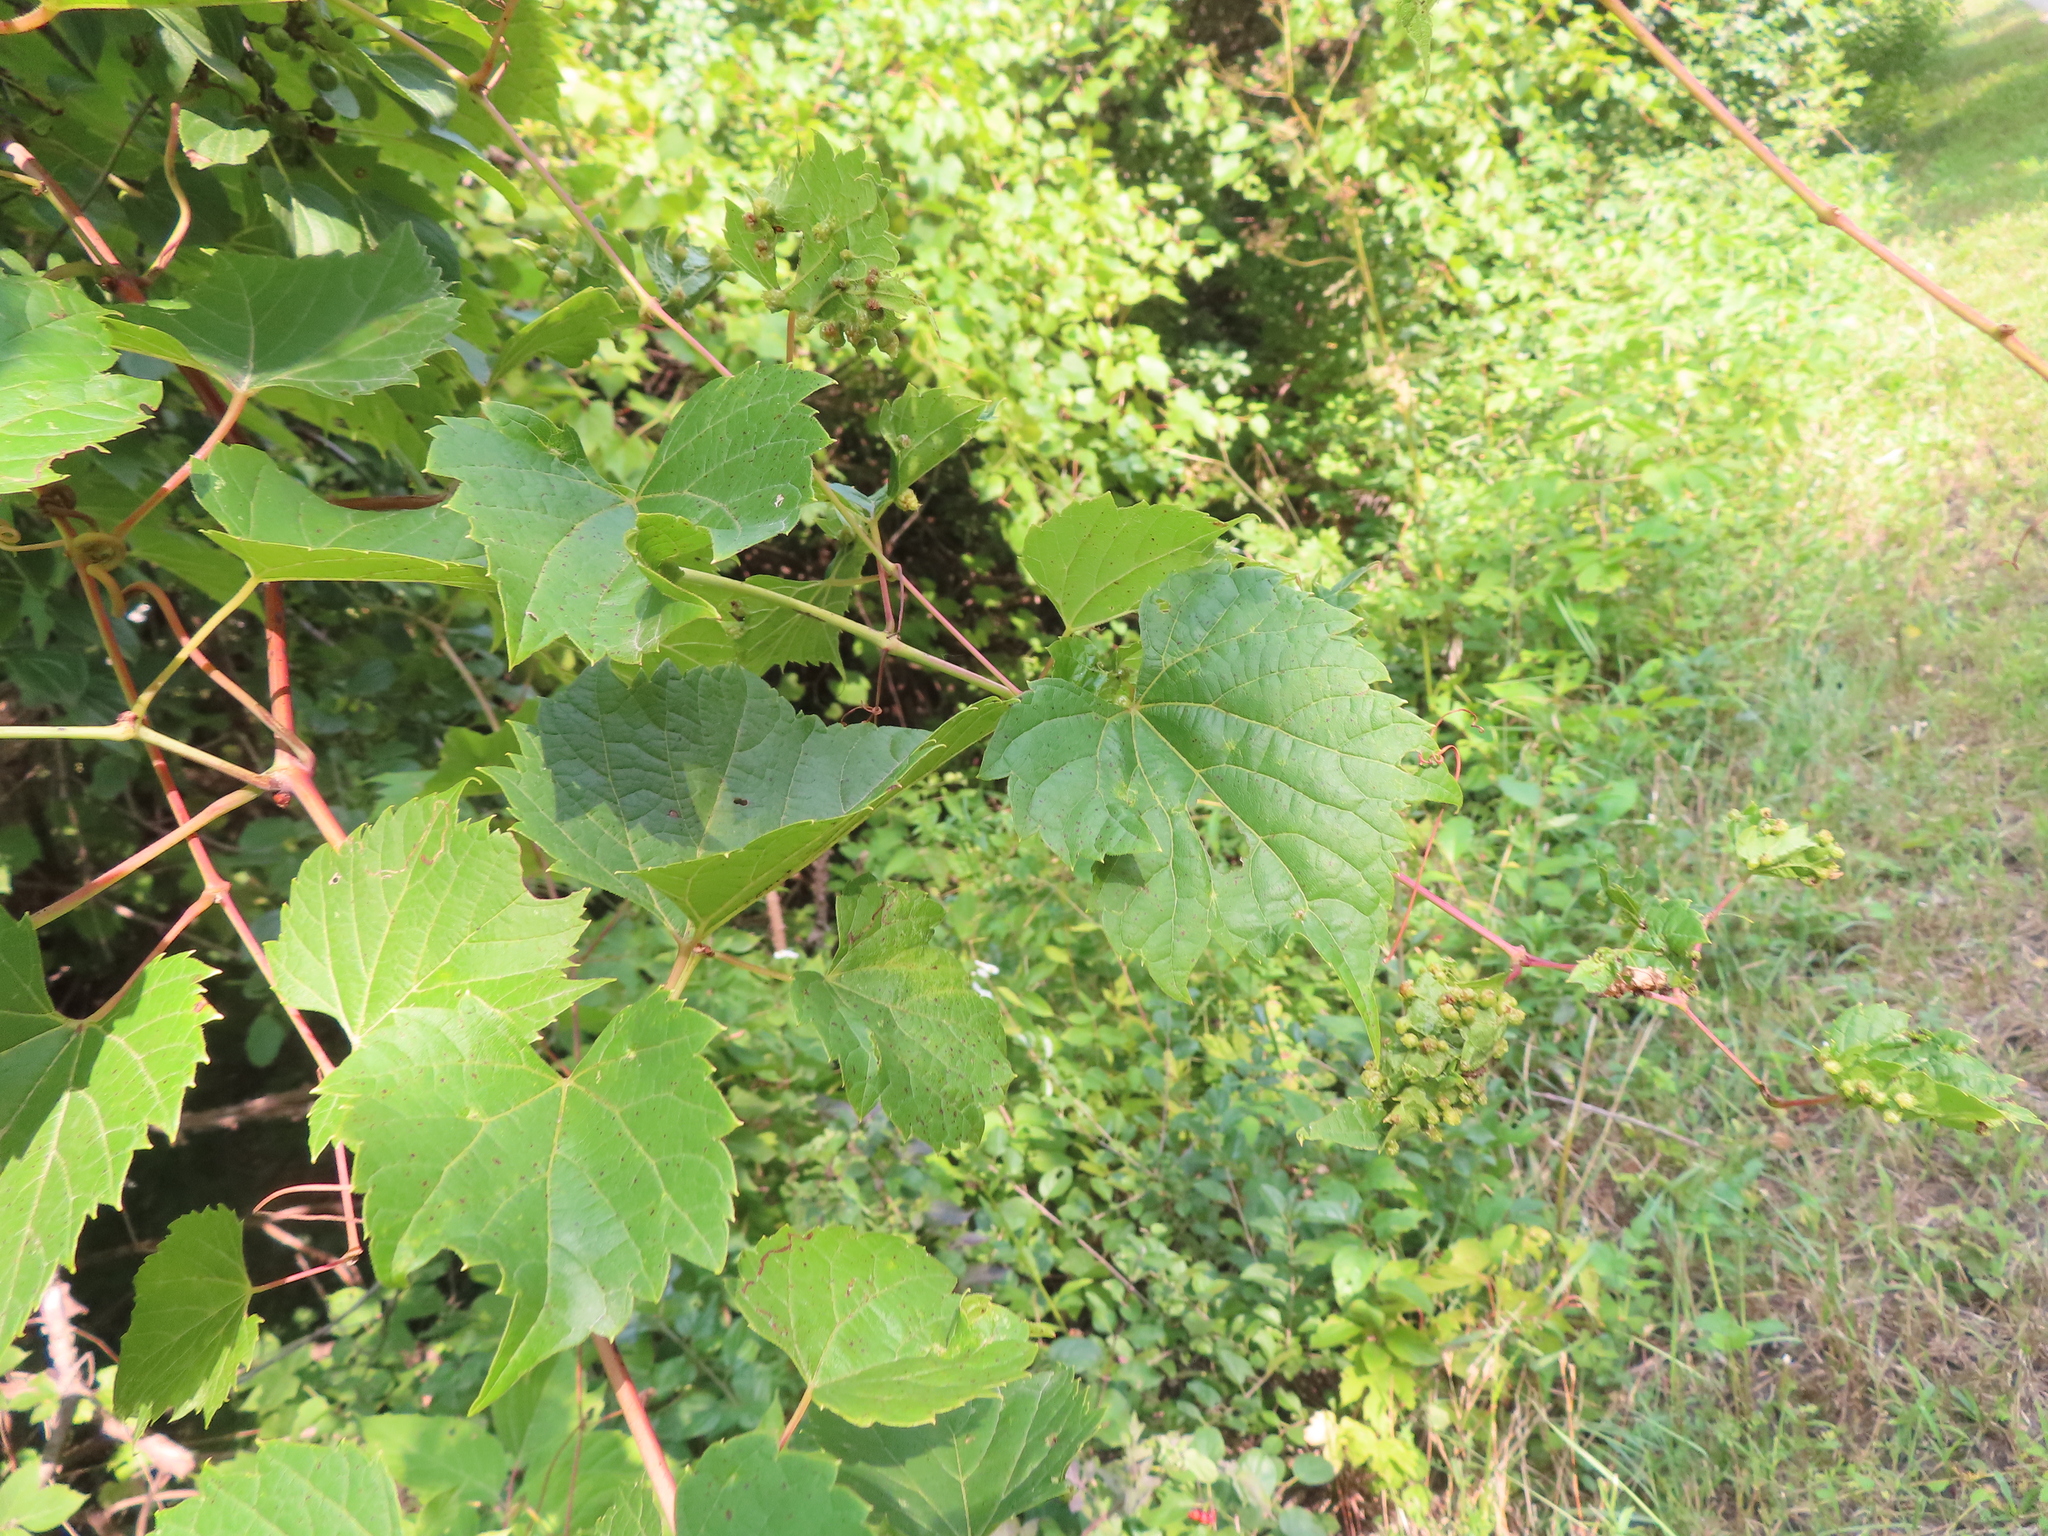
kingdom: Plantae
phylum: Tracheophyta
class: Magnoliopsida
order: Vitales
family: Vitaceae
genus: Vitis
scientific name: Vitis riparia
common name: Frost grape
